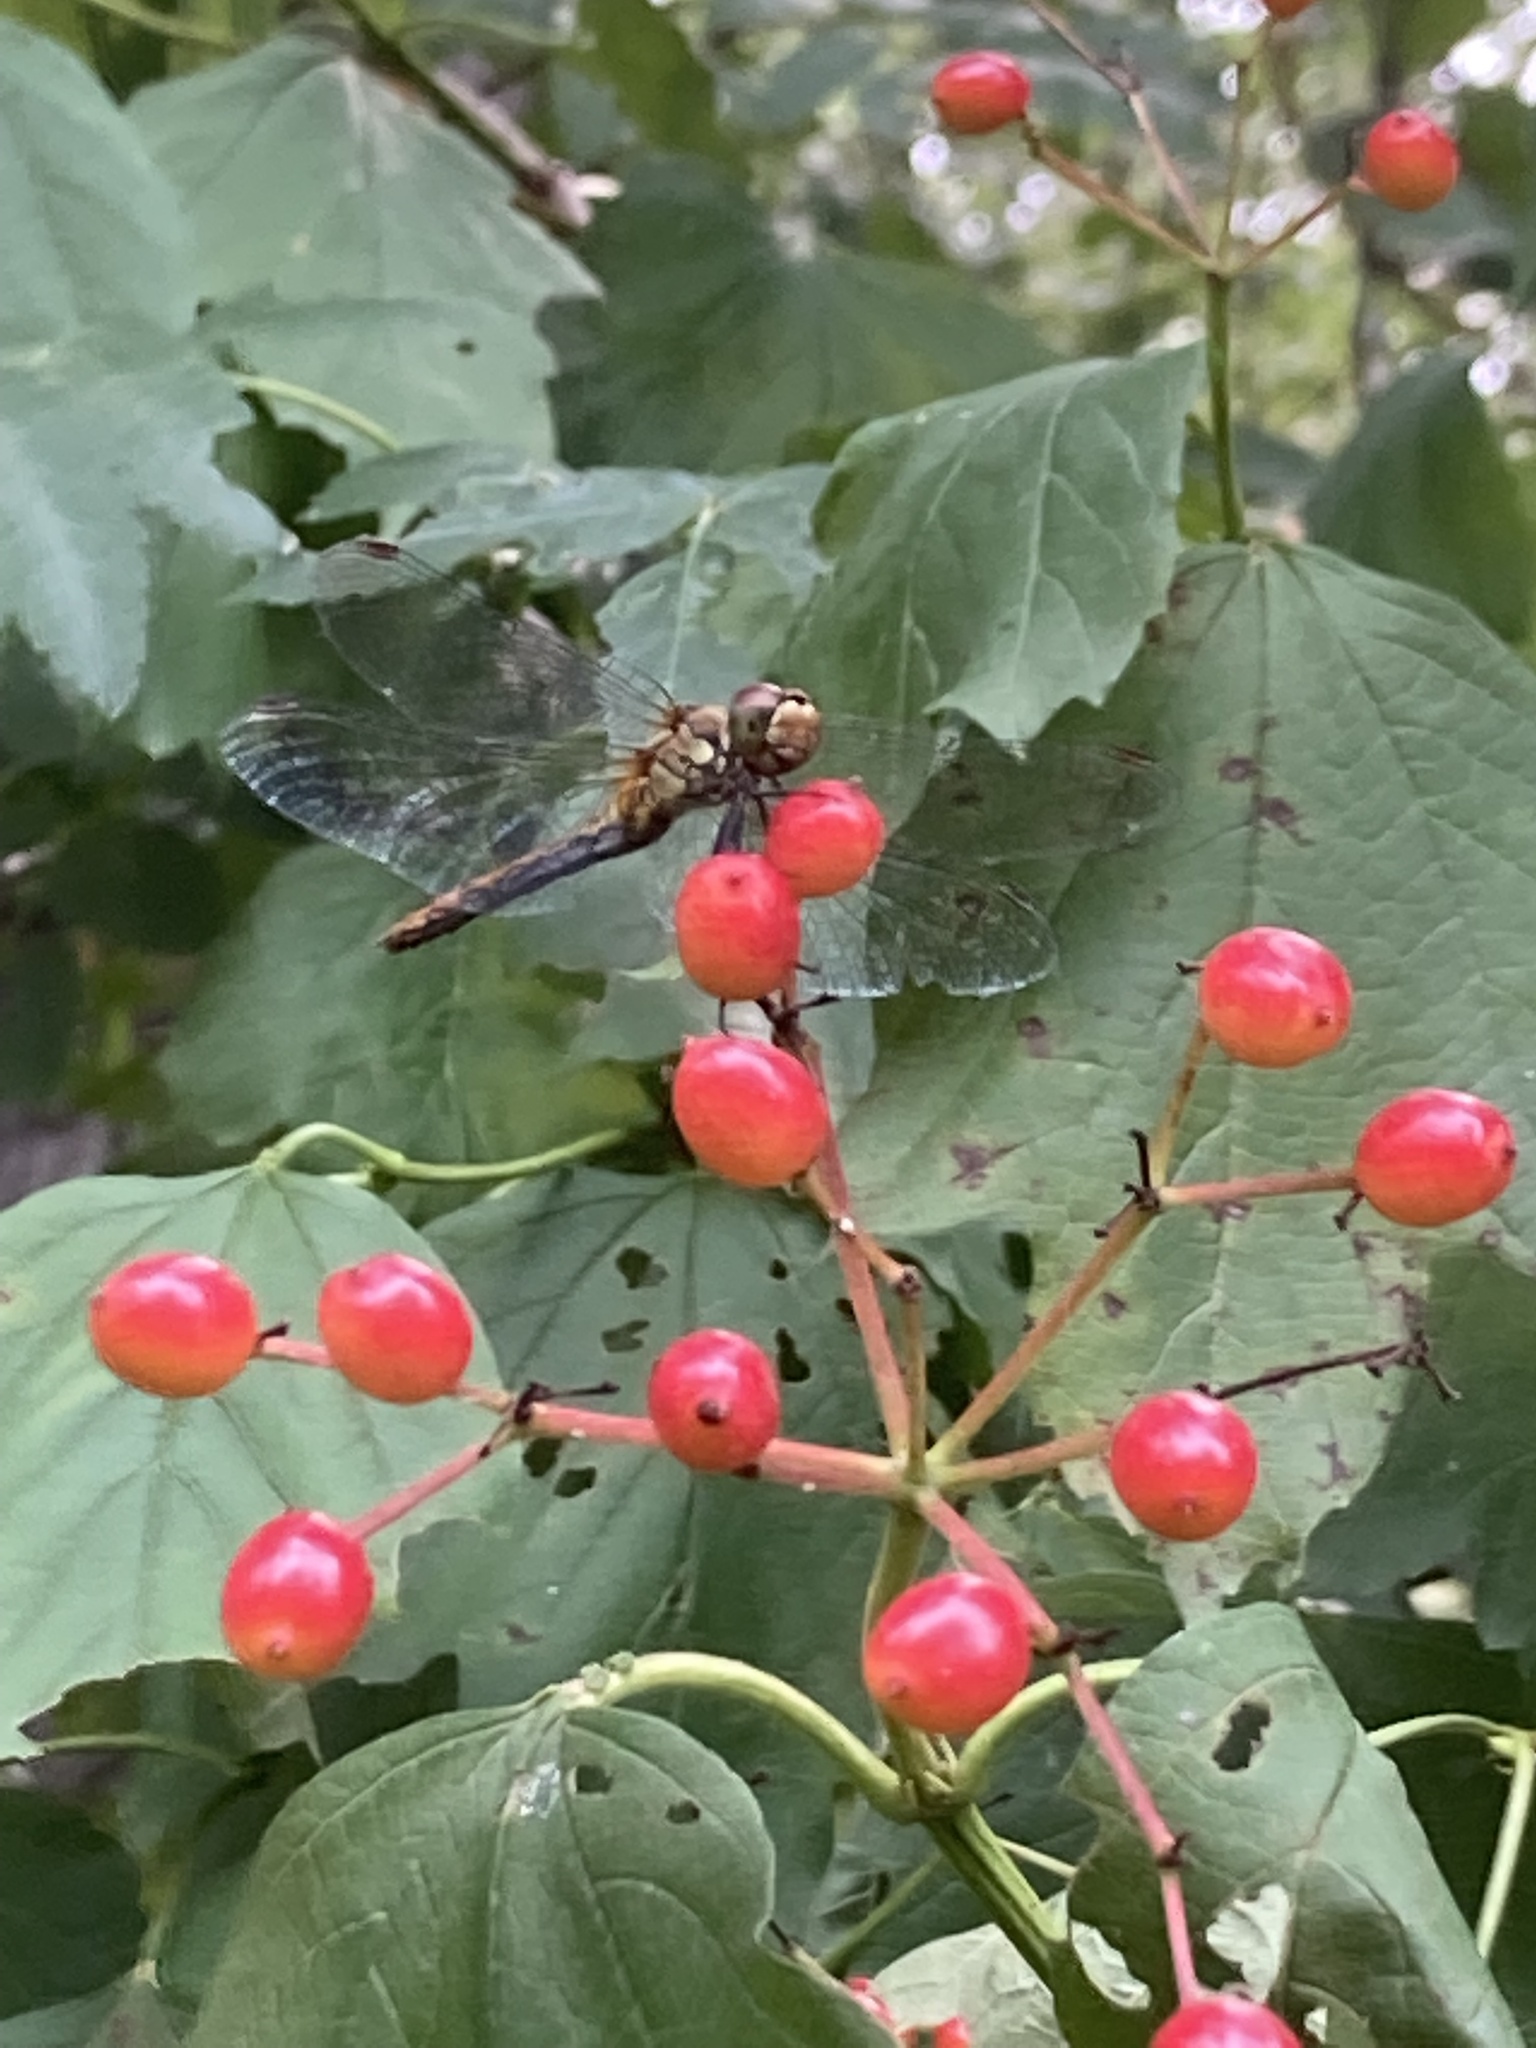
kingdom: Animalia
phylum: Arthropoda
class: Insecta
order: Odonata
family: Libellulidae
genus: Sympetrum
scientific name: Sympetrum sanguineum
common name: Ruddy darter
